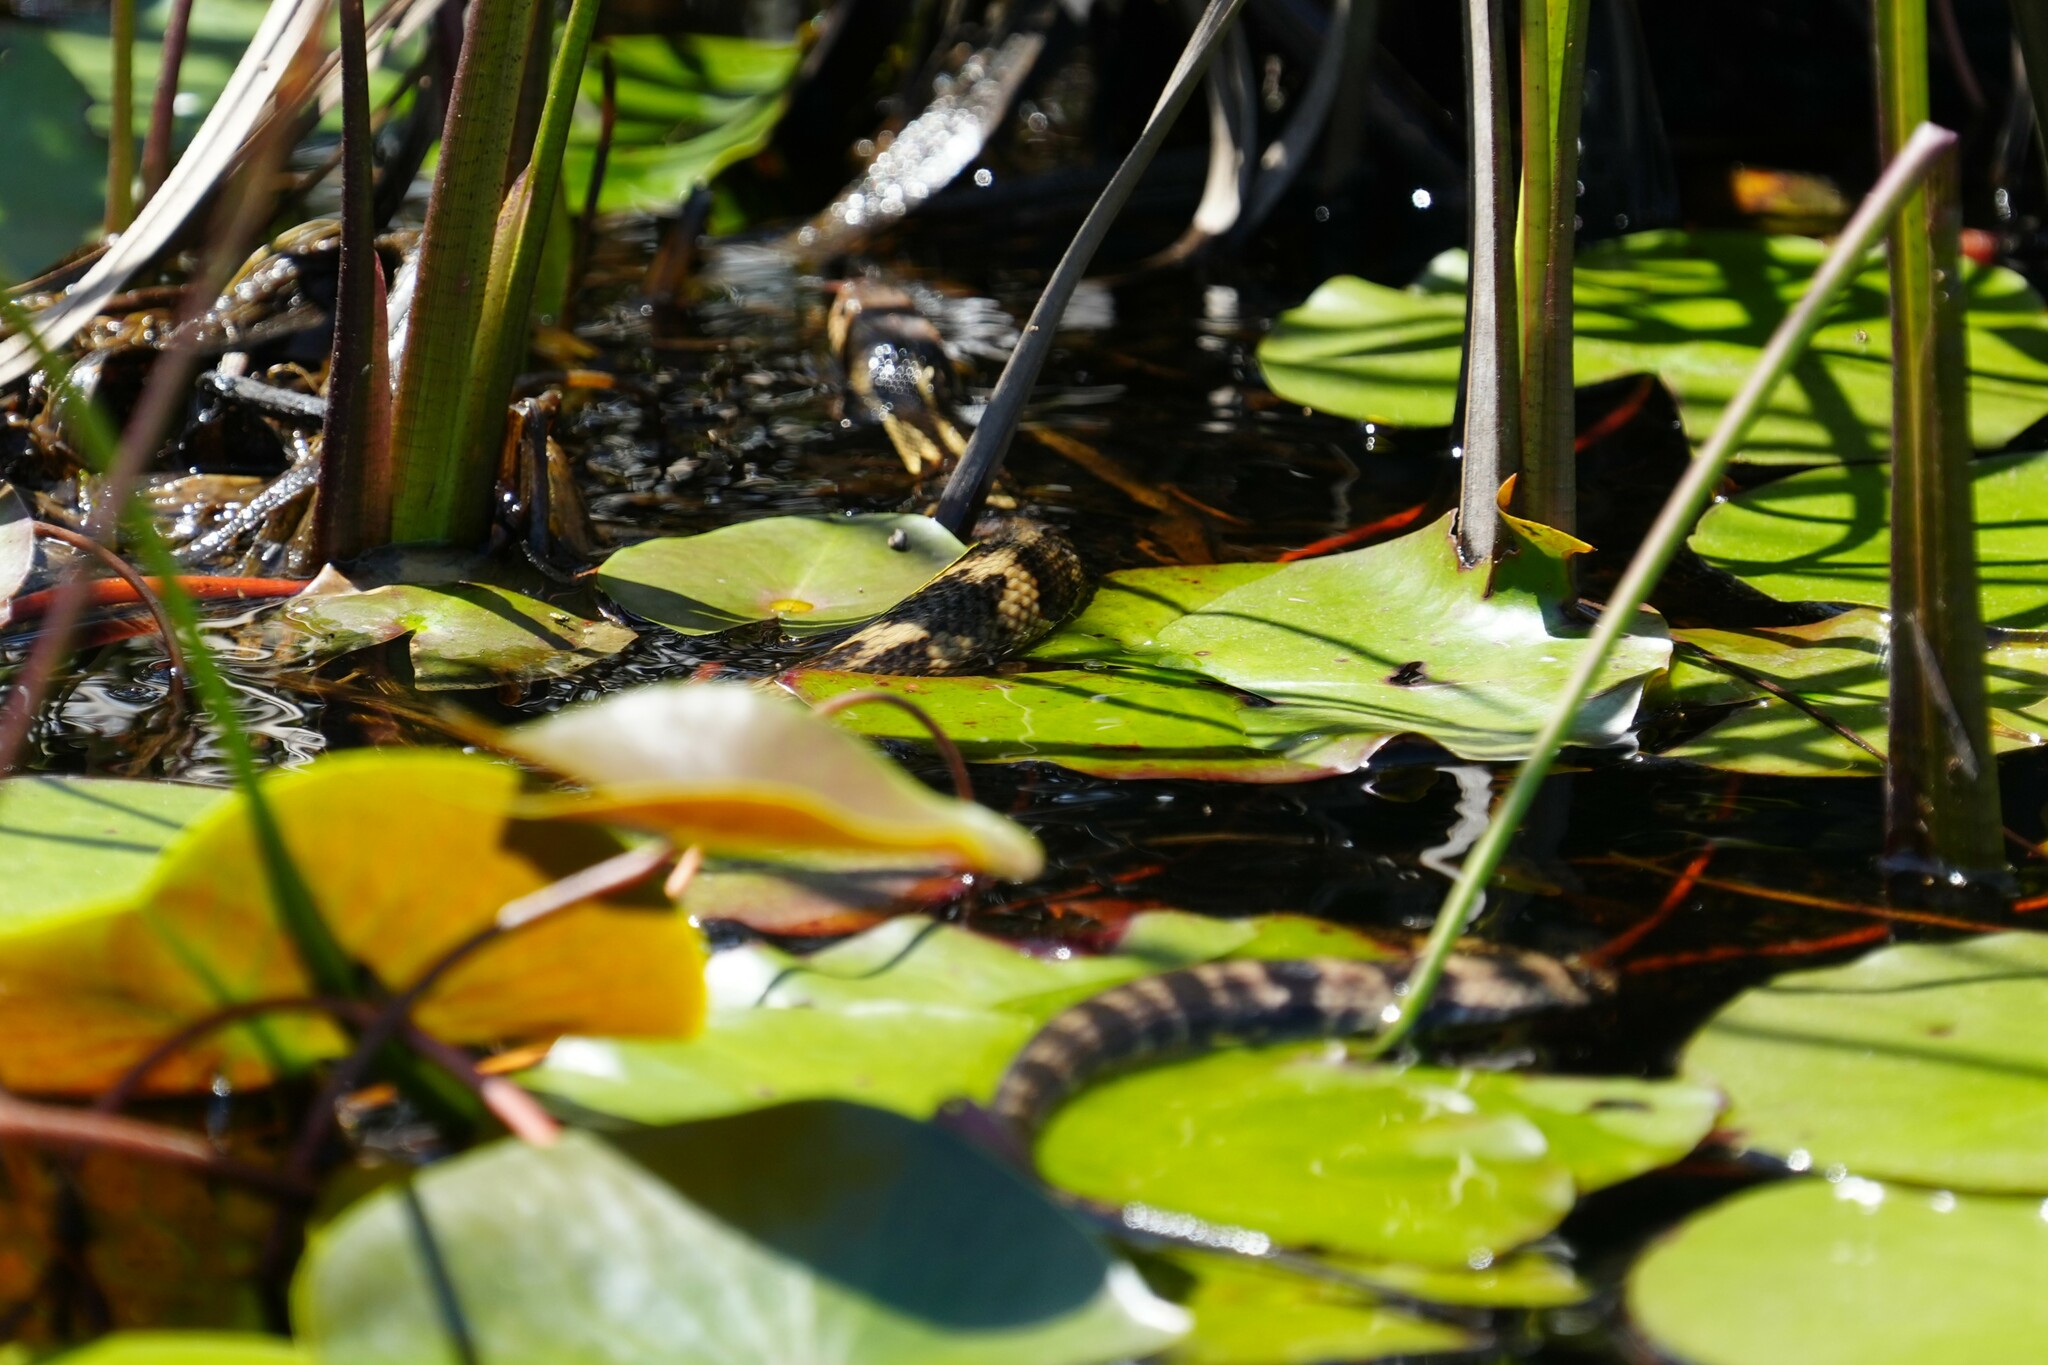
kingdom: Animalia
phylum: Chordata
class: Squamata
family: Colubridae
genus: Nerodia
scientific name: Nerodia fasciata
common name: Southern water snake
